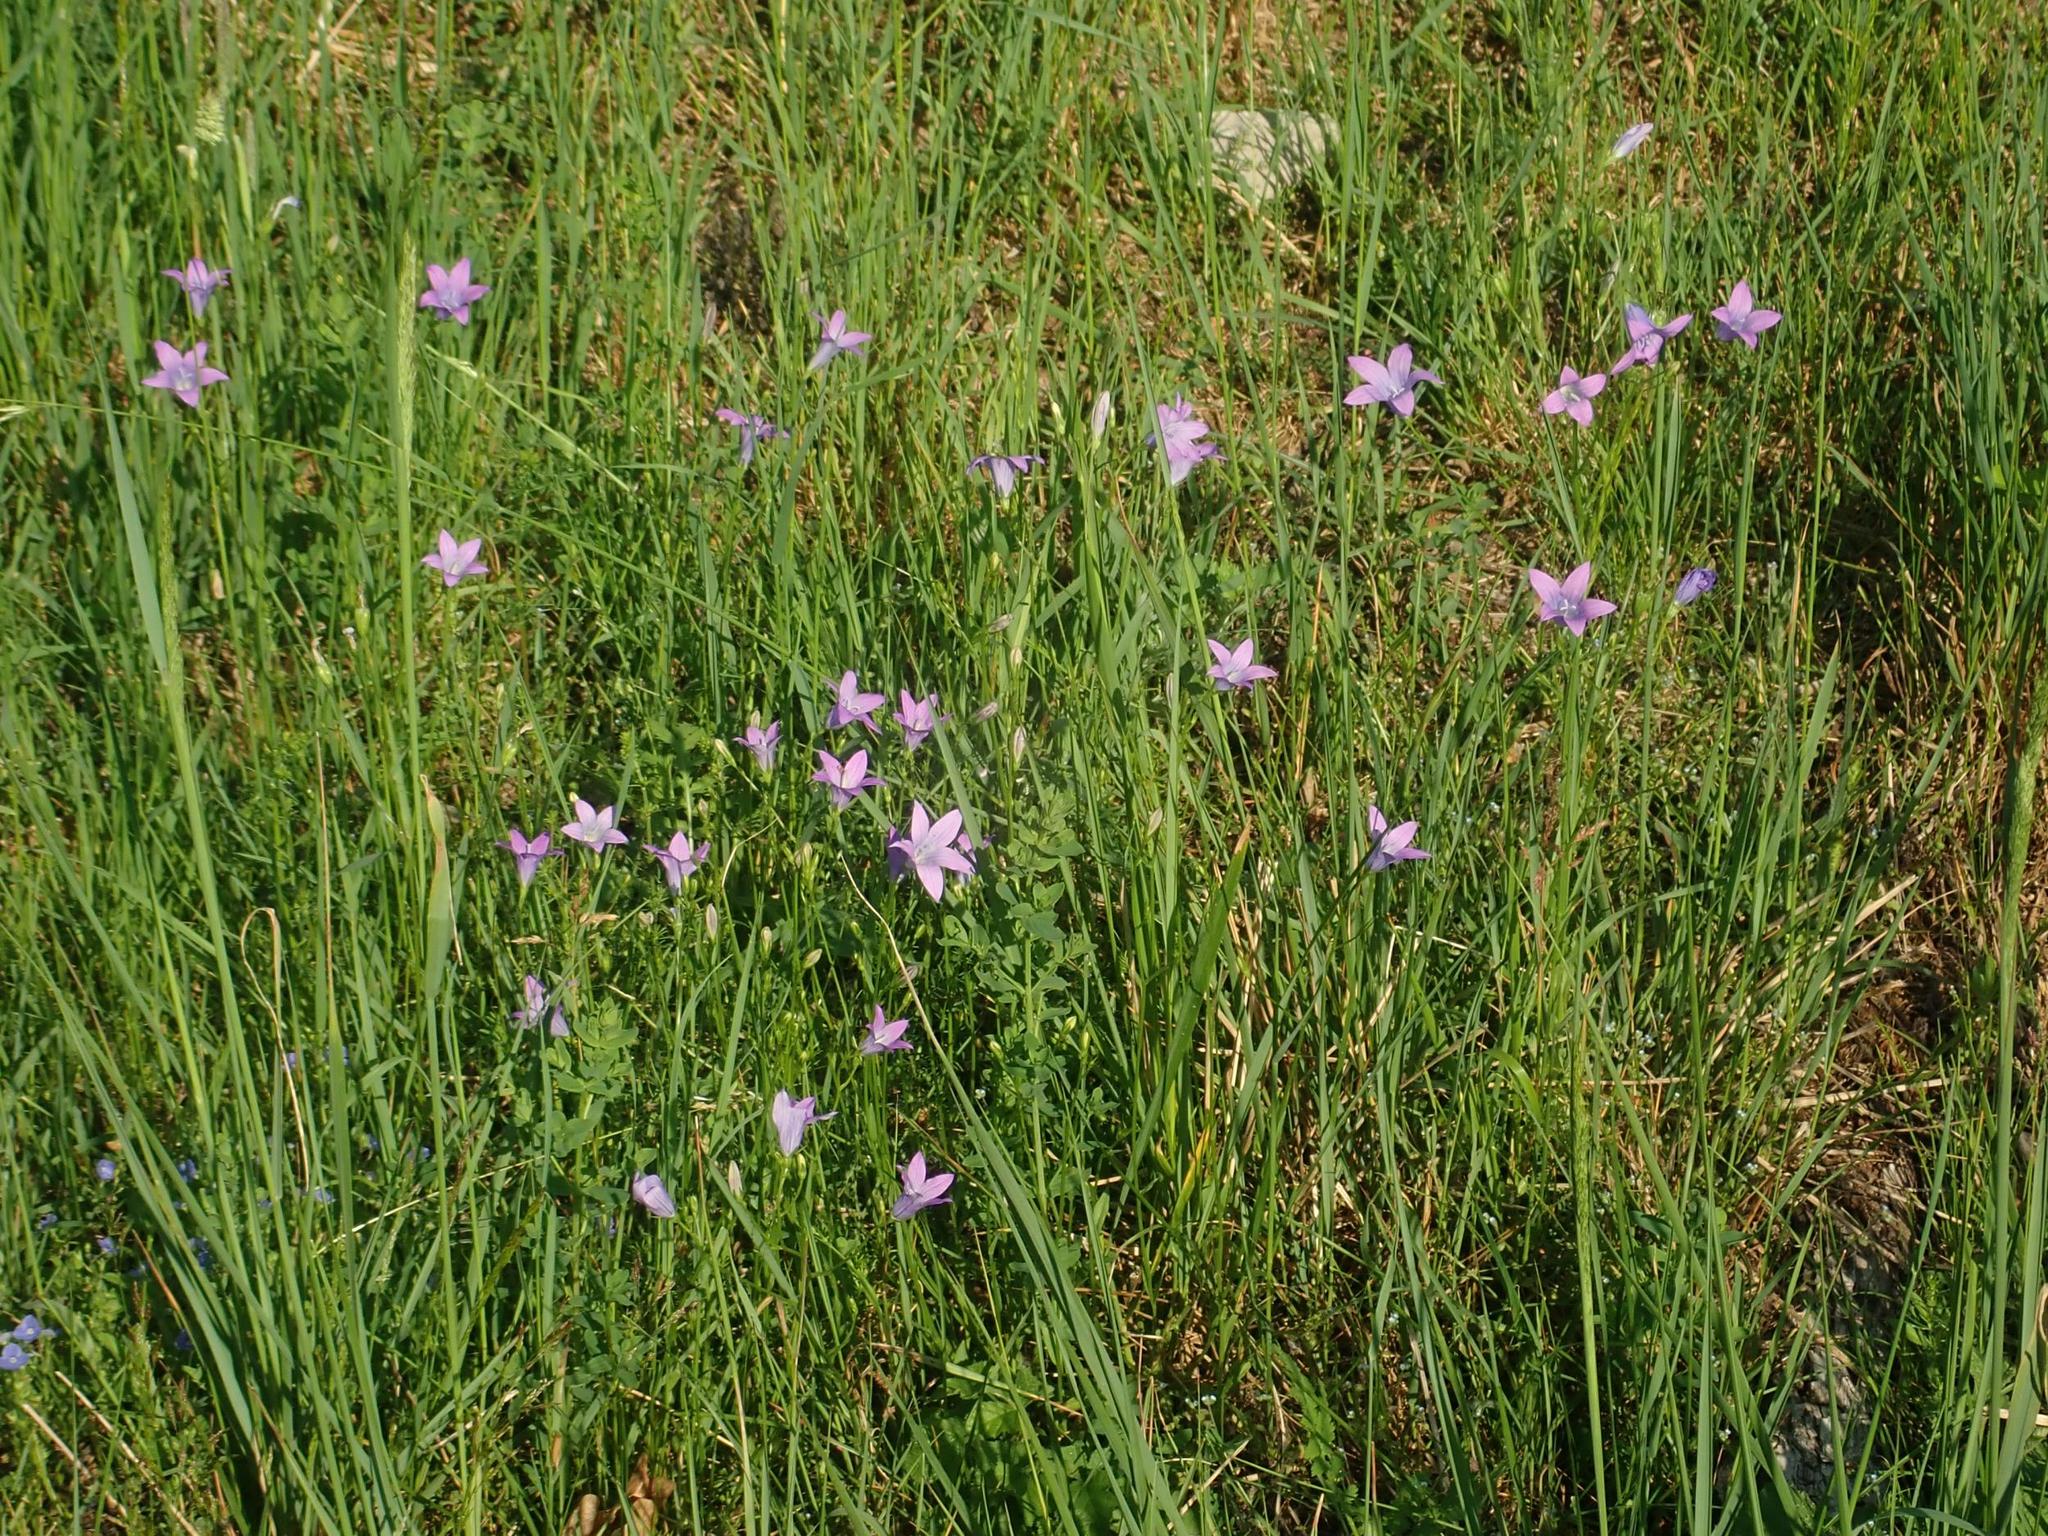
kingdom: Plantae
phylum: Tracheophyta
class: Magnoliopsida
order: Asterales
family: Campanulaceae
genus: Campanula
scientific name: Campanula patula
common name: Spreading bellflower
